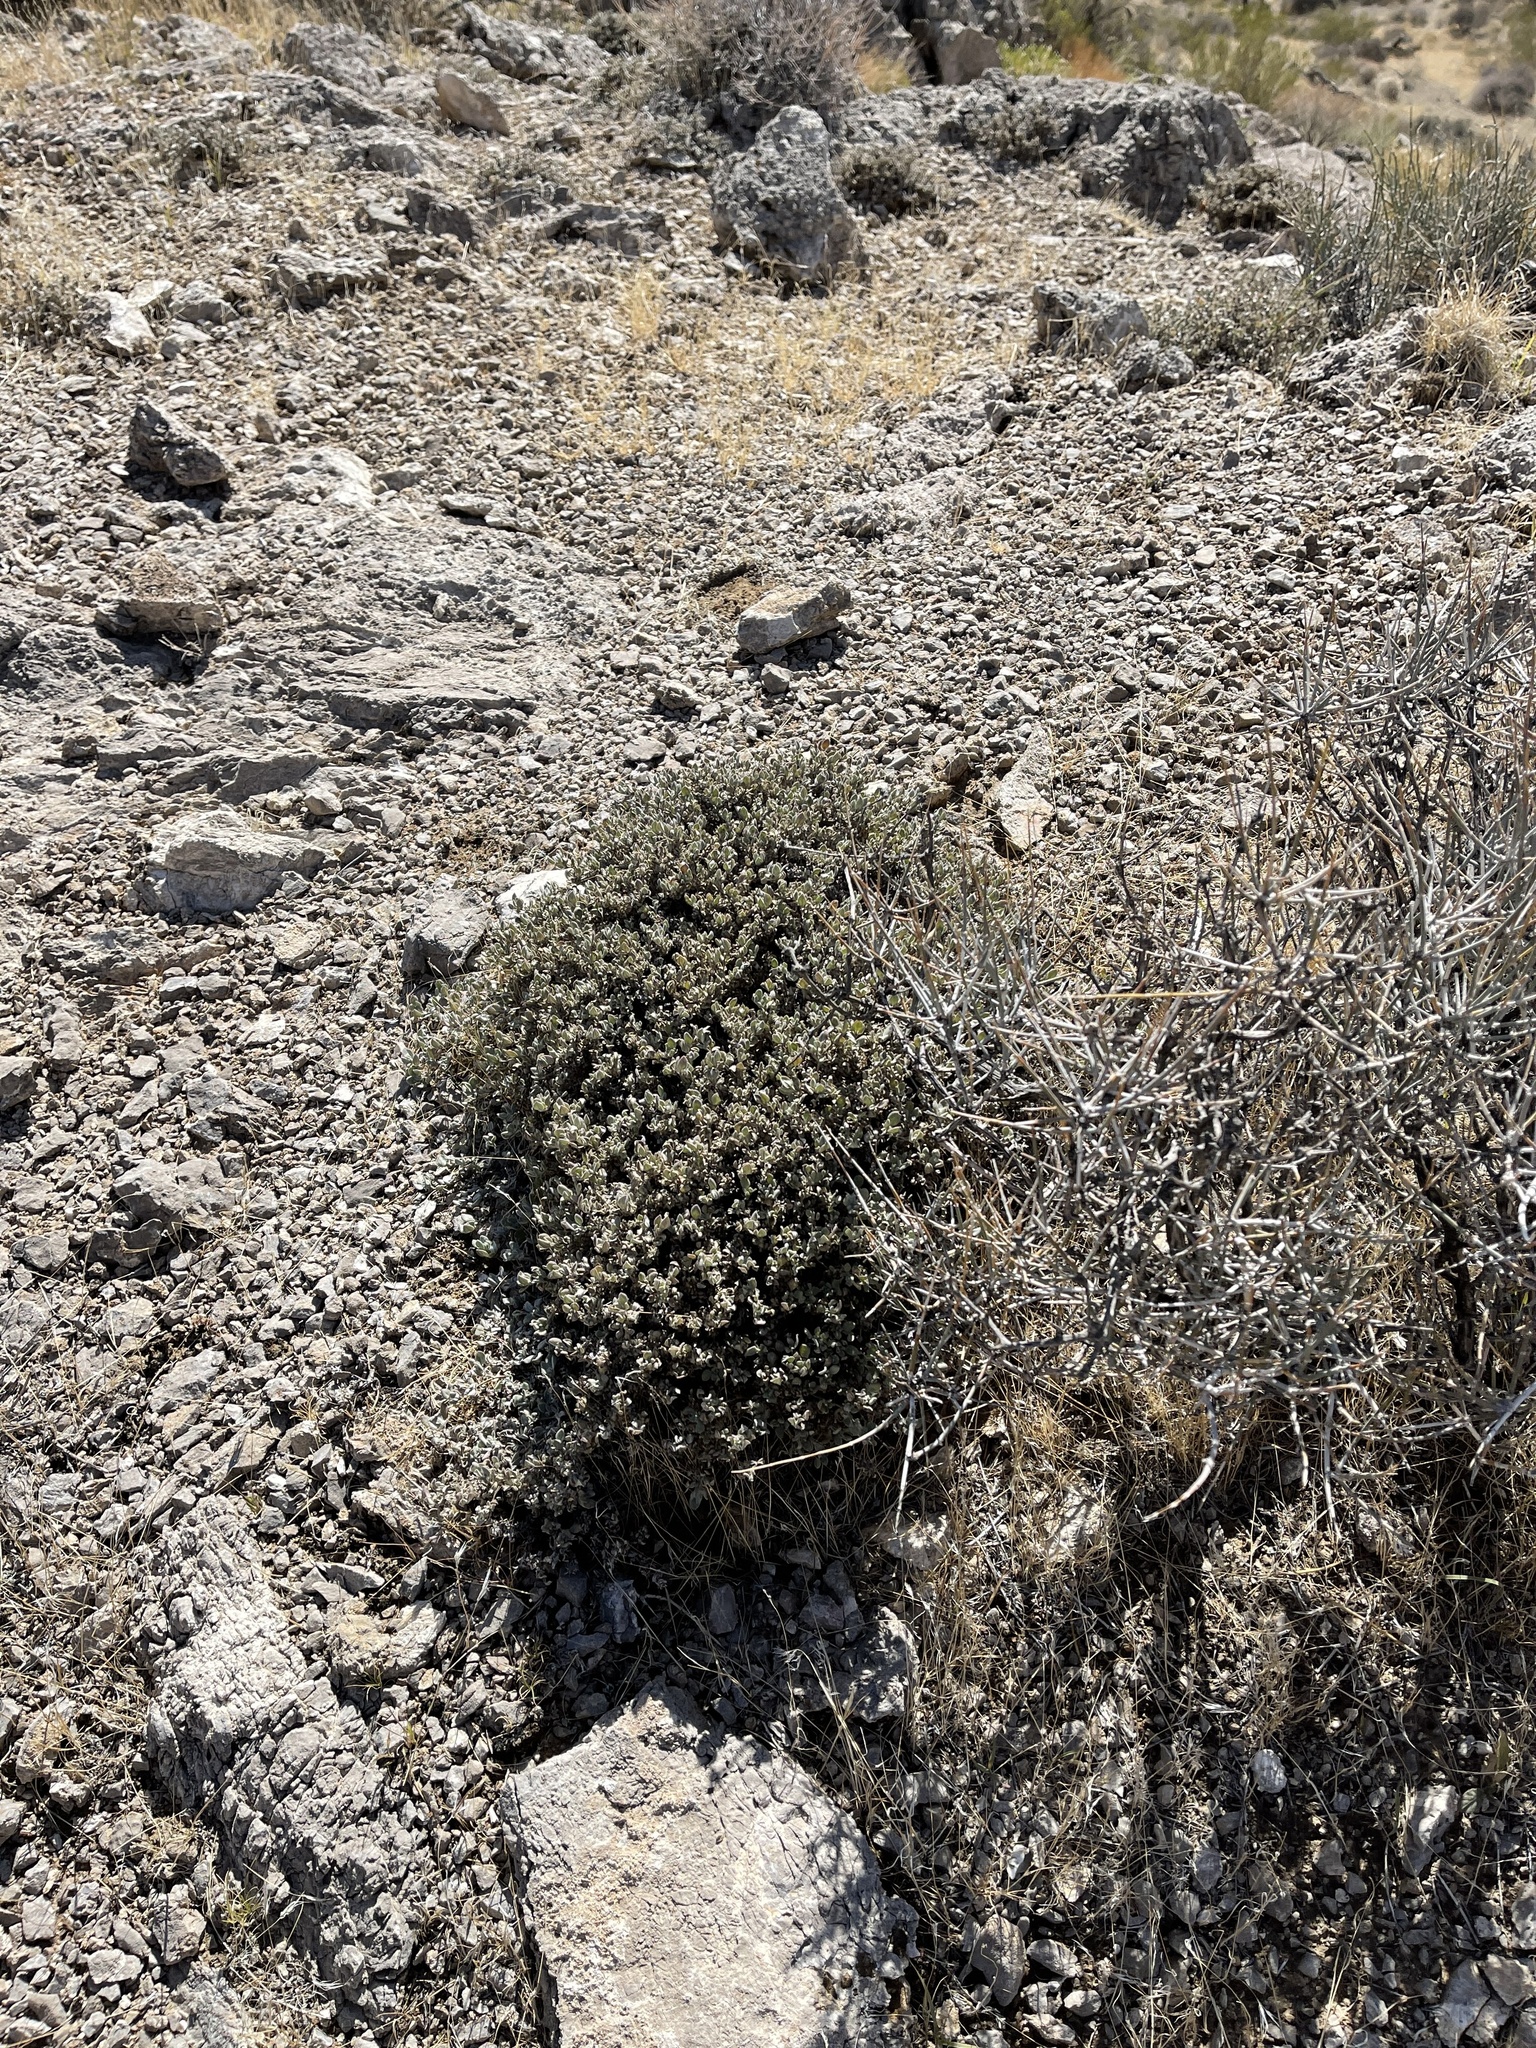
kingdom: Plantae
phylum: Tracheophyta
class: Magnoliopsida
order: Boraginales
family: Ehretiaceae
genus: Tiquilia
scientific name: Tiquilia canescens
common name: Hairy tiquilia
